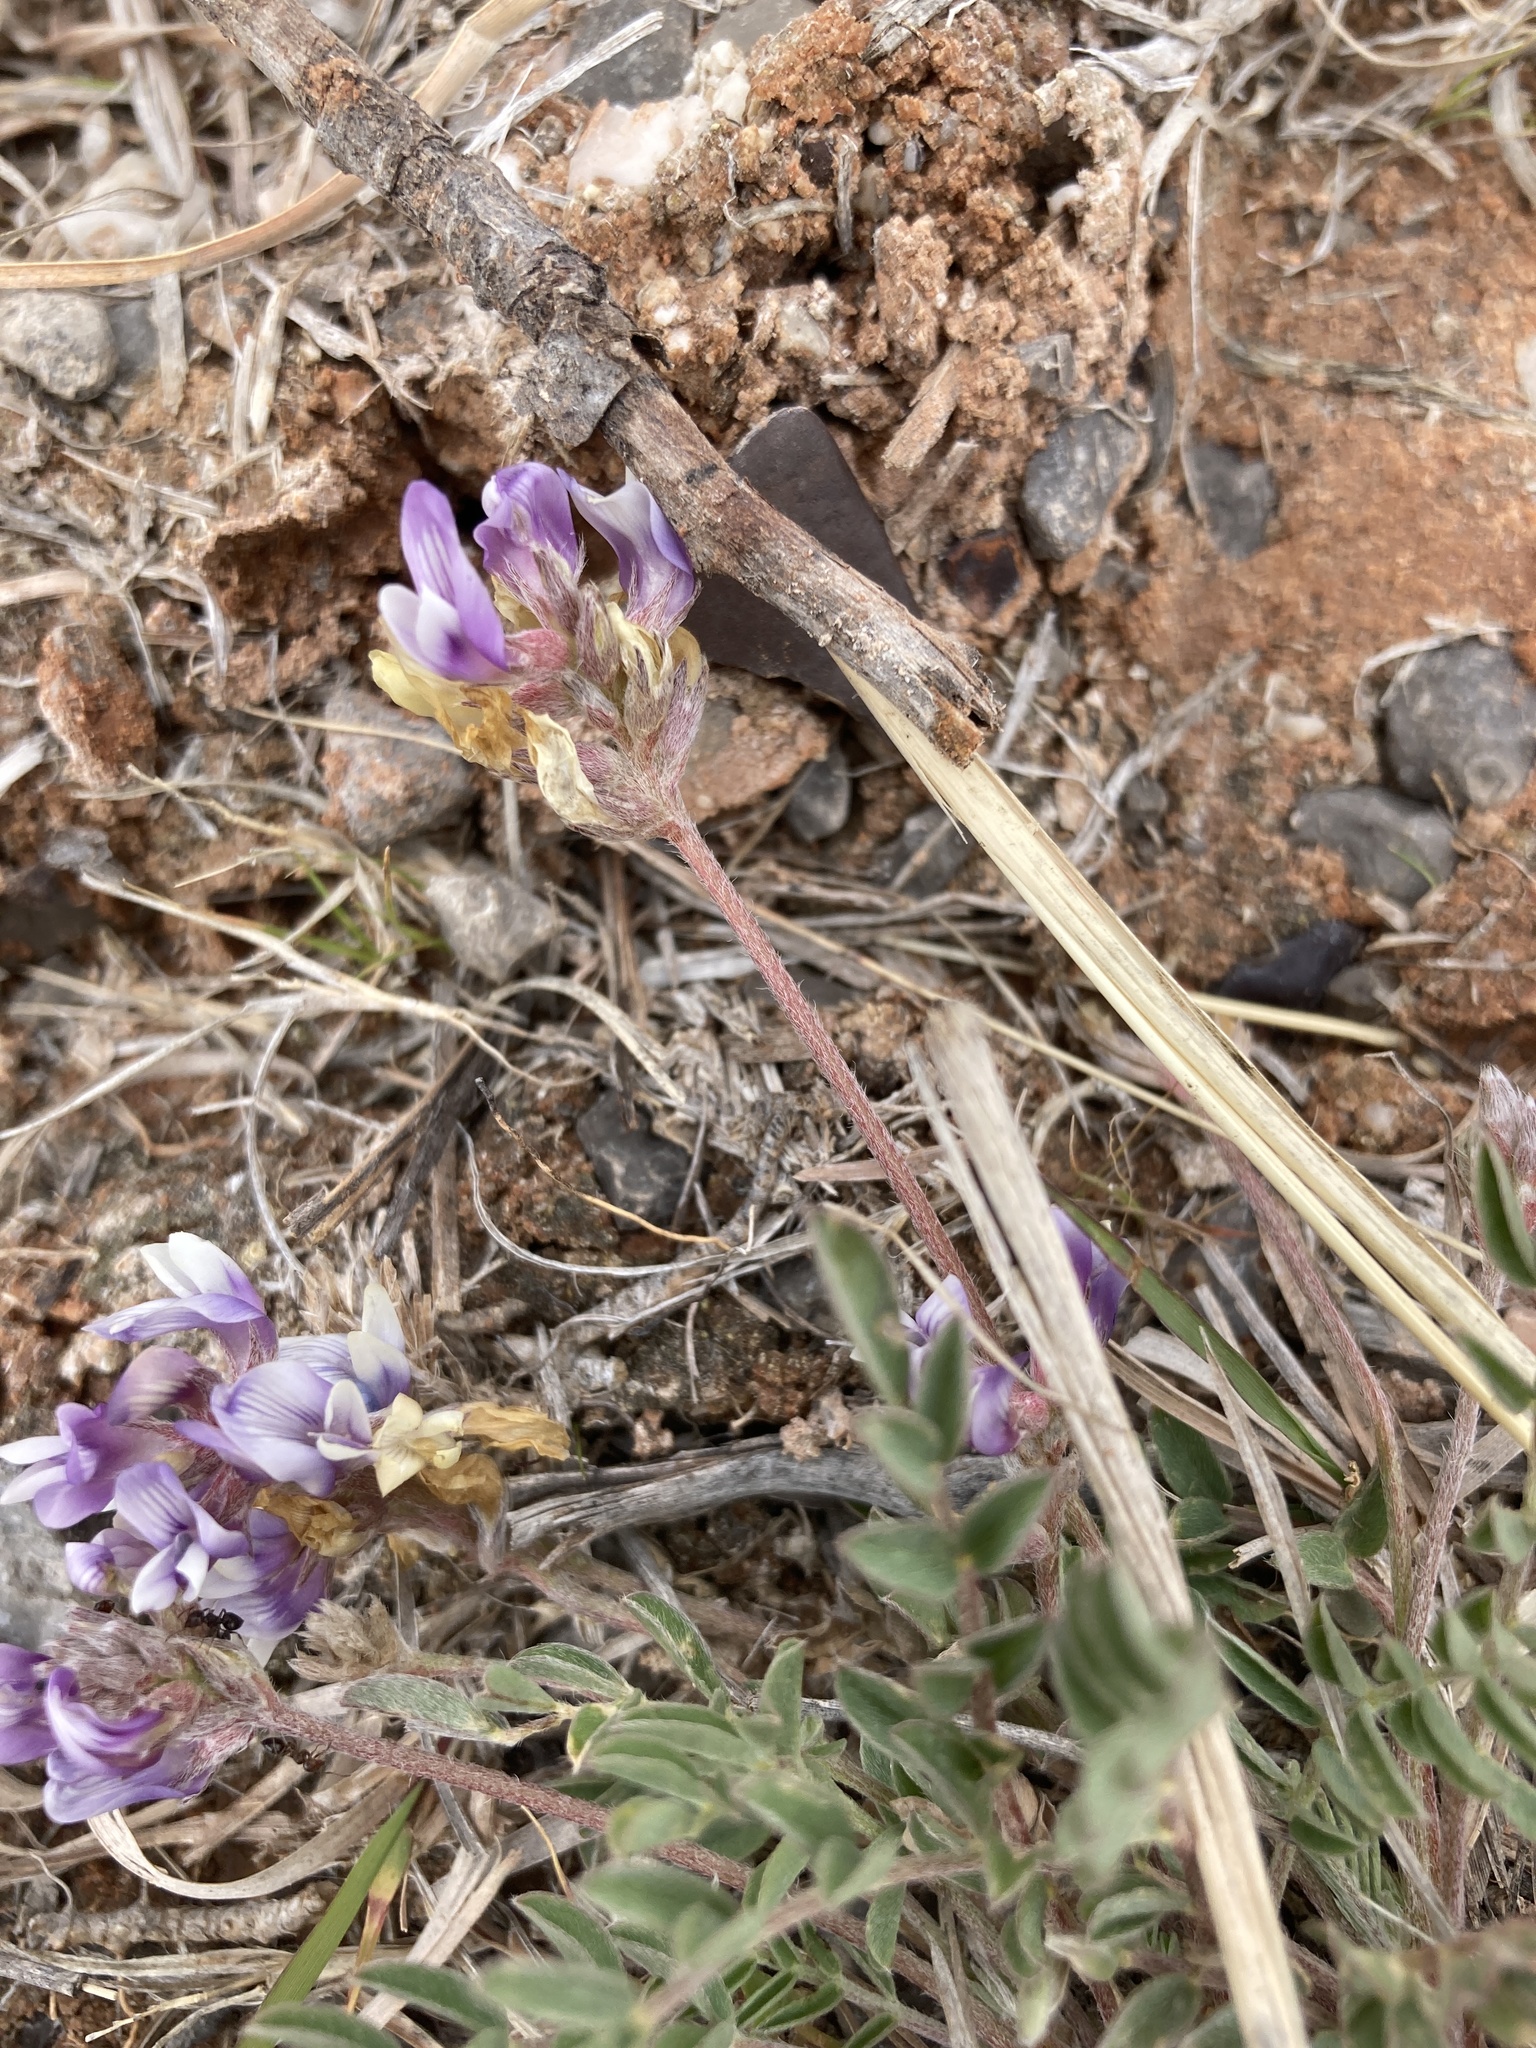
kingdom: Plantae
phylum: Tracheophyta
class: Magnoliopsida
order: Fabales
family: Fabaceae
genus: Astragalus
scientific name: Astragalus lotiflorus
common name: Lotus milk-vetch
